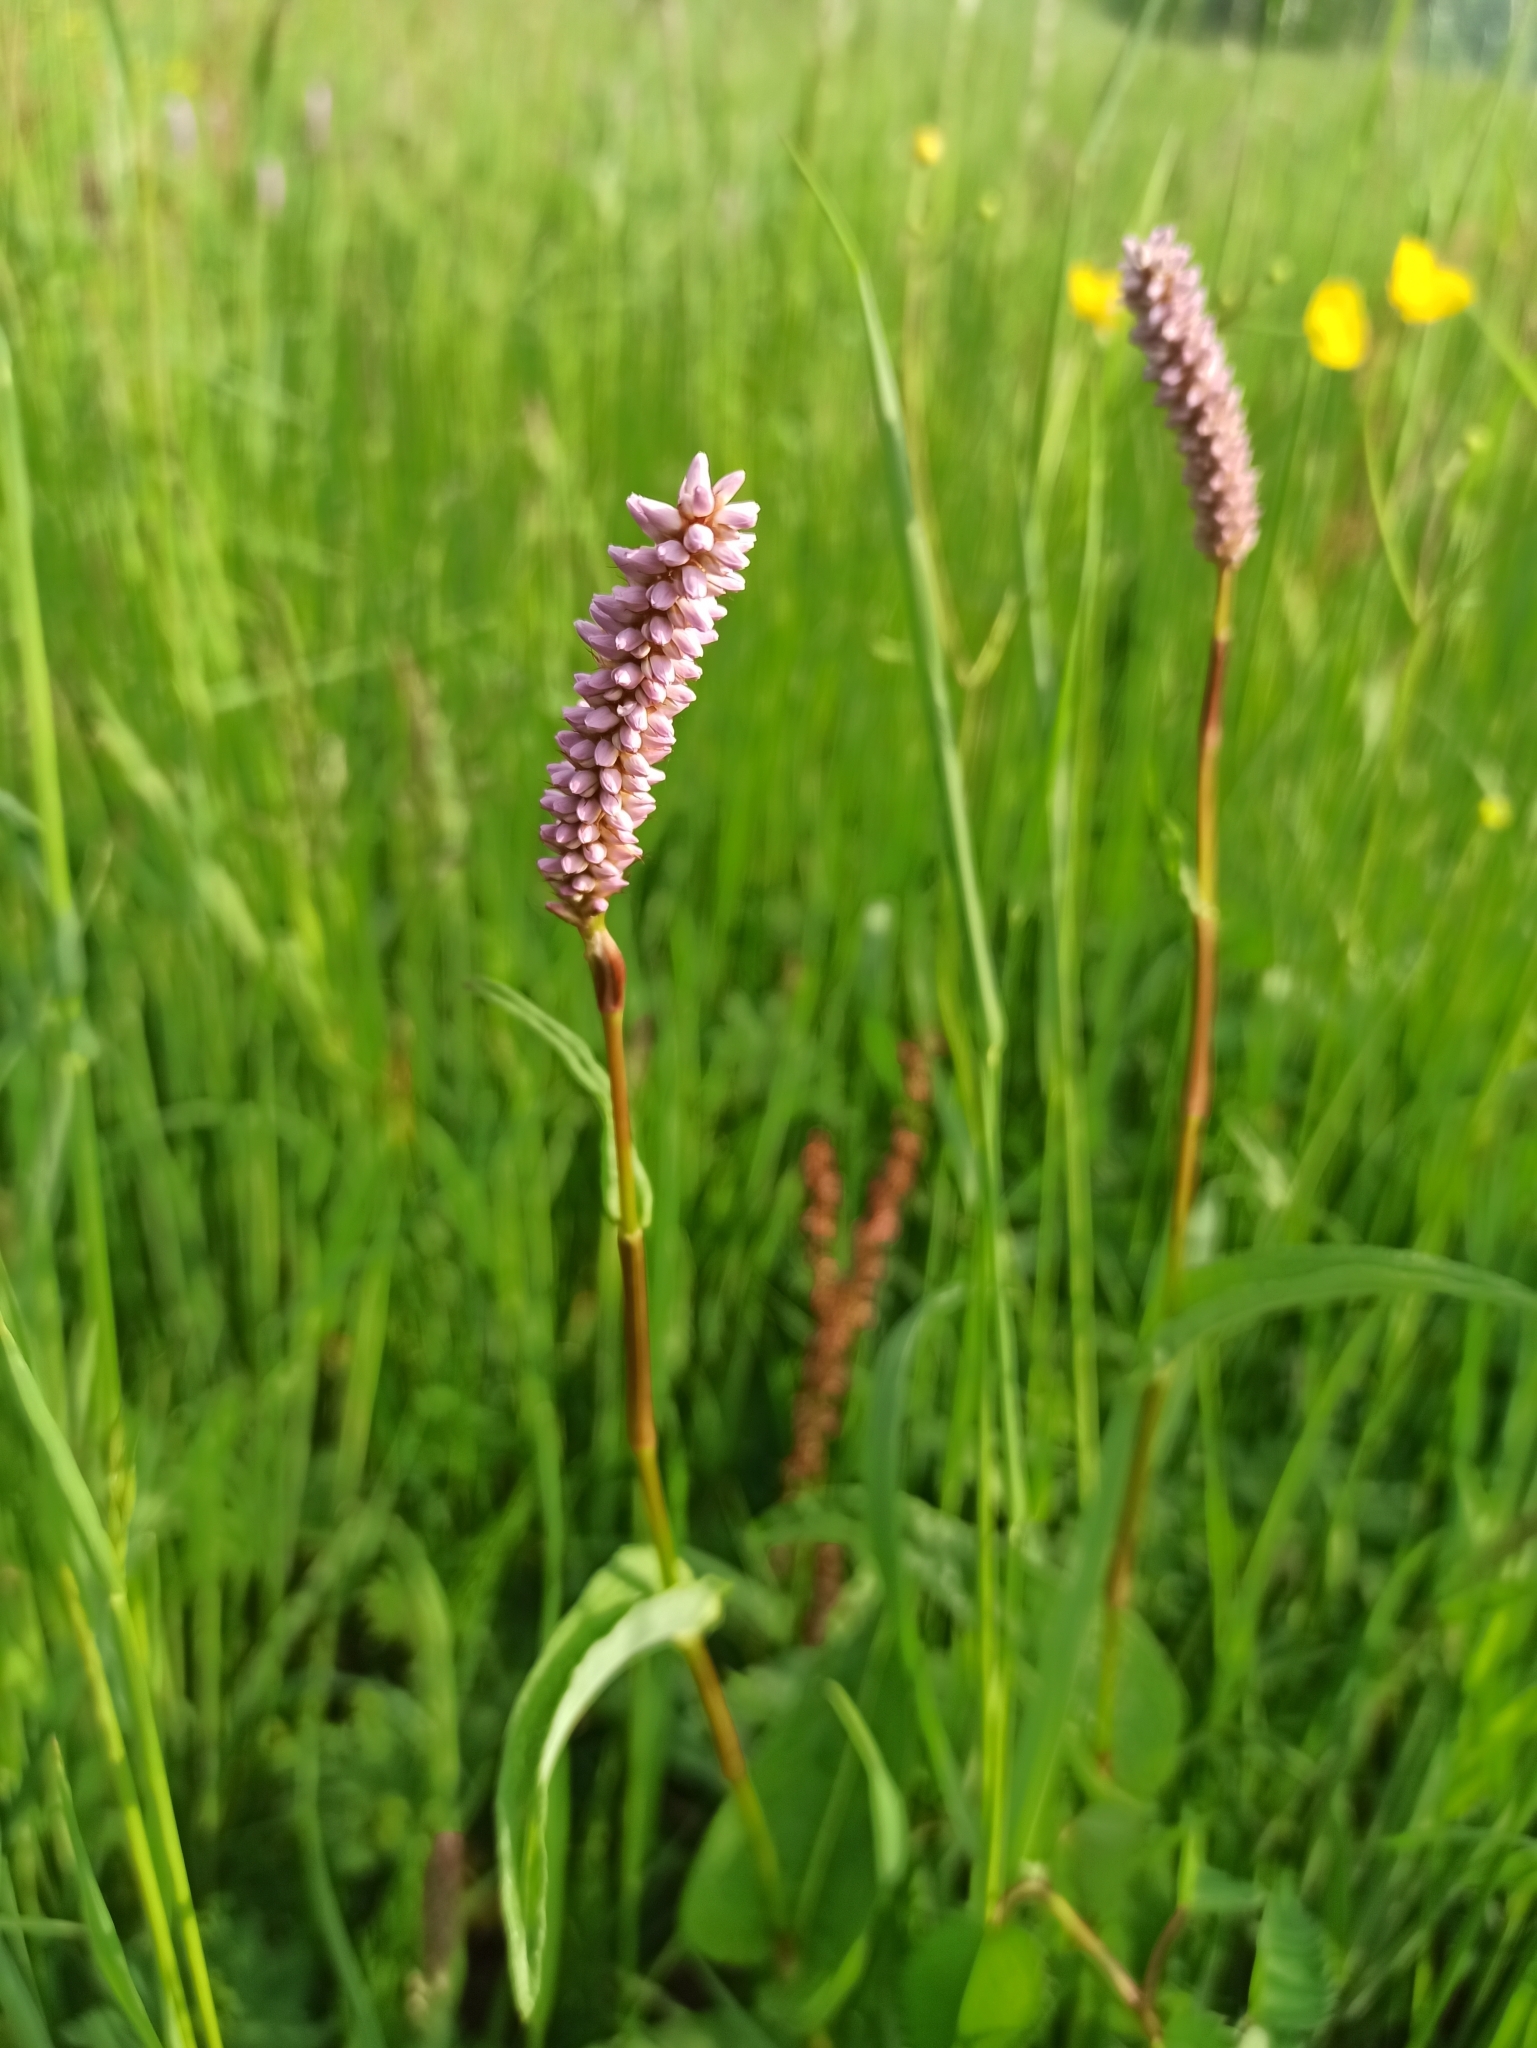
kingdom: Plantae
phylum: Tracheophyta
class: Magnoliopsida
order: Caryophyllales
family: Polygonaceae
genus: Bistorta
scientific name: Bistorta officinalis
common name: Common bistort
